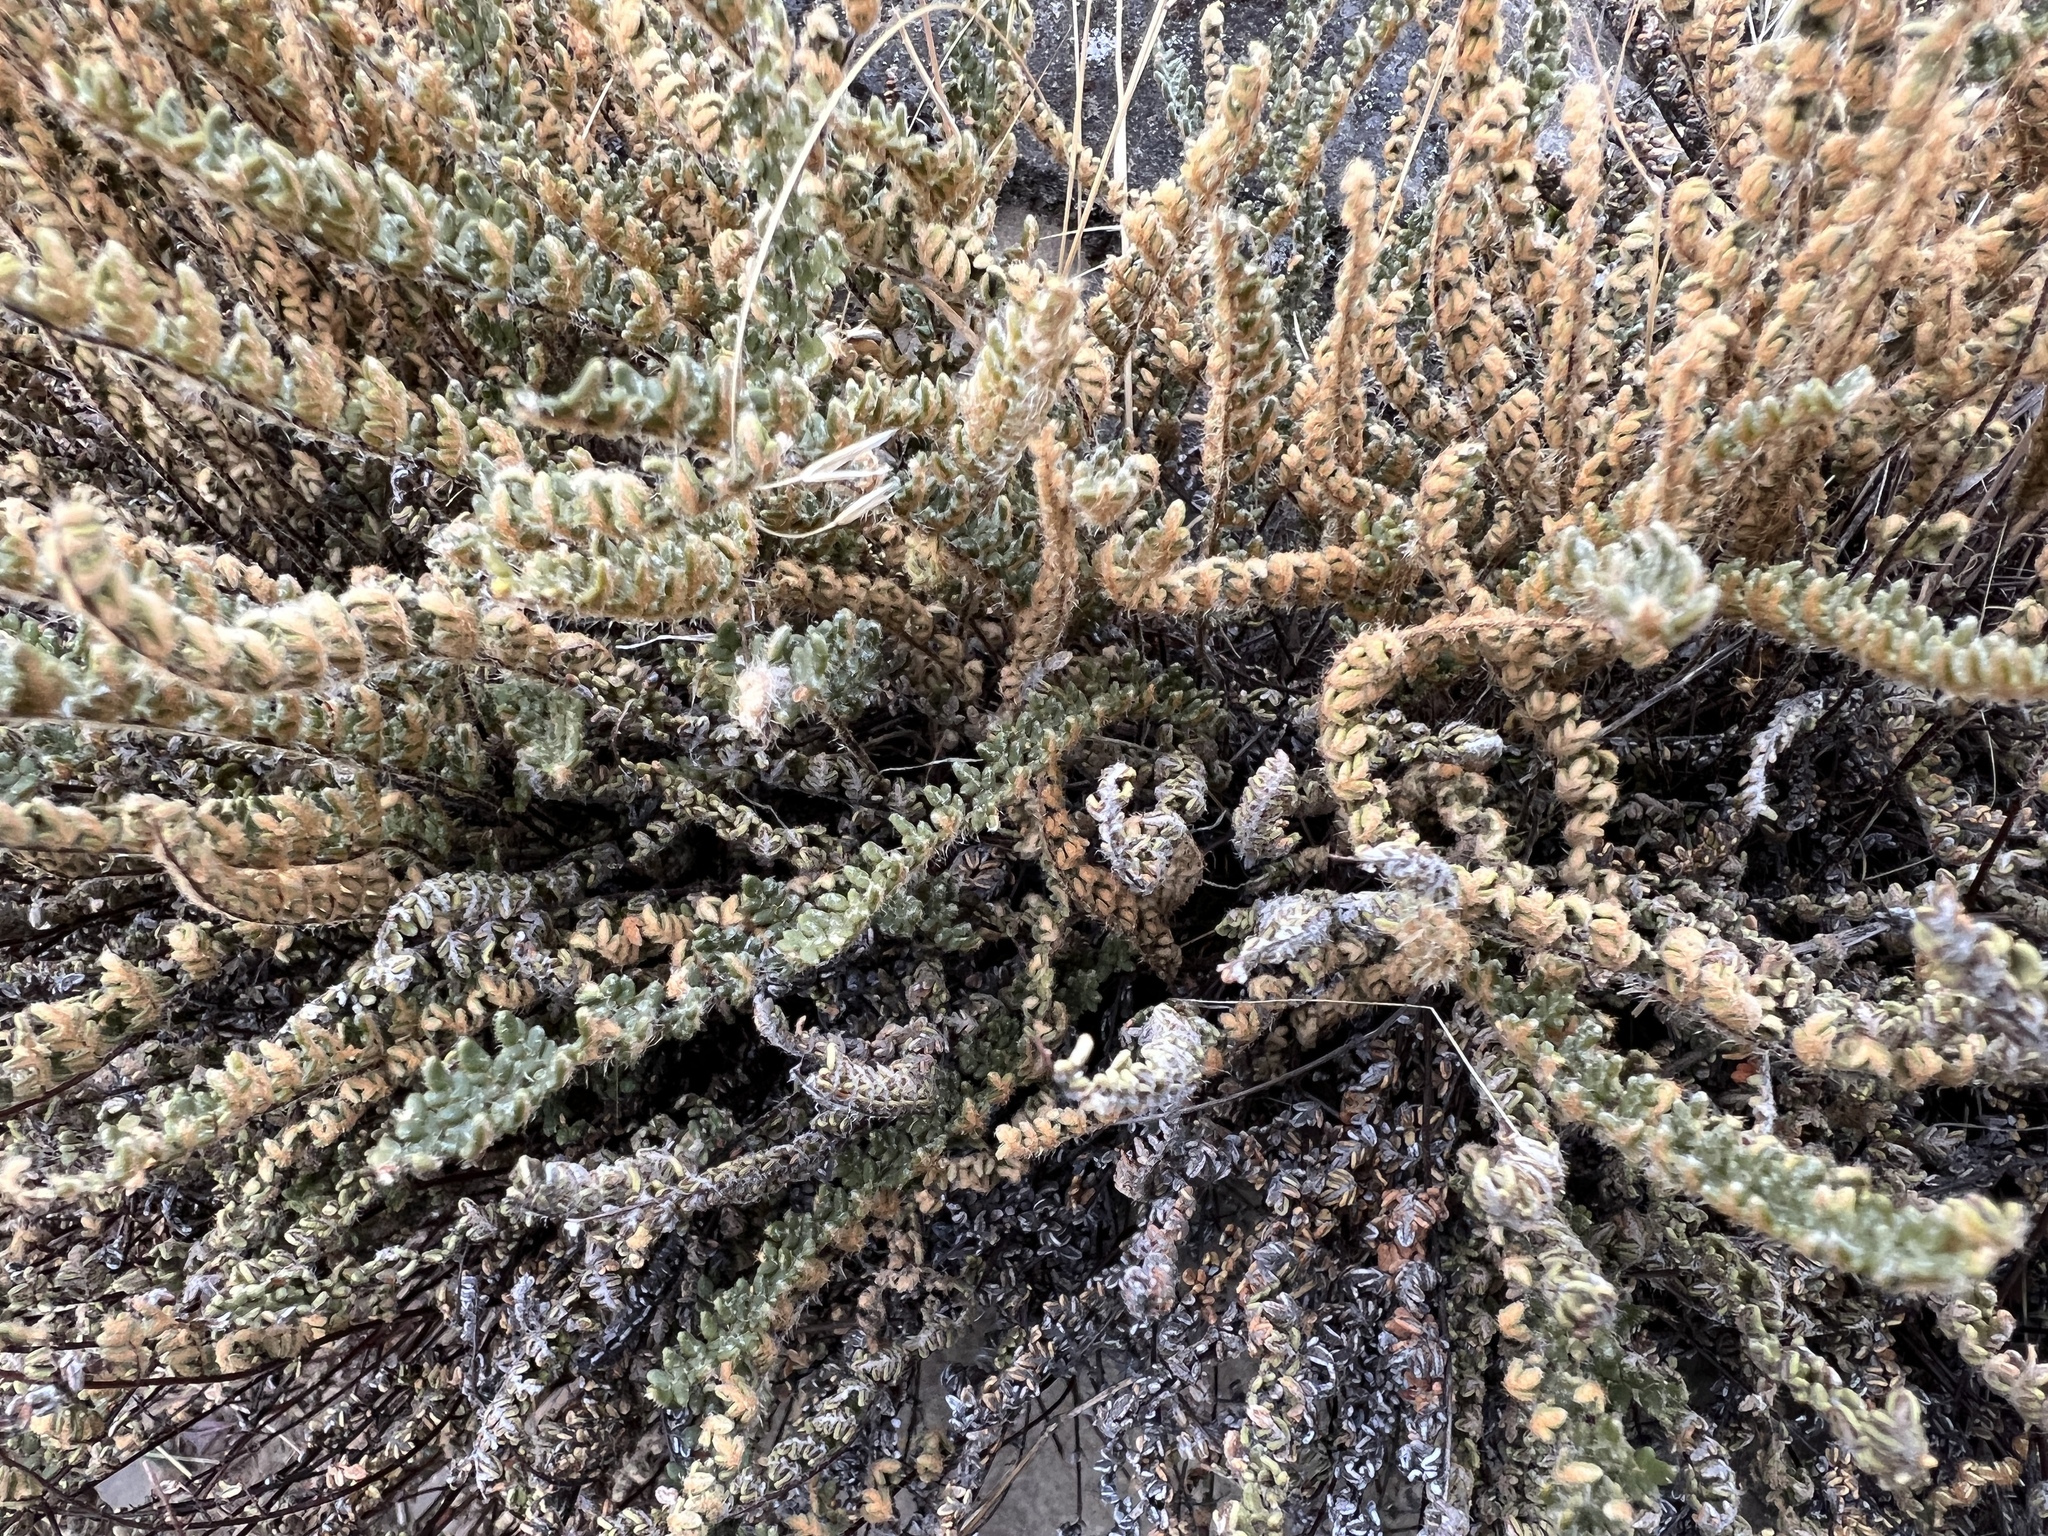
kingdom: Plantae
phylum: Tracheophyta
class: Polypodiopsida
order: Polypodiales
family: Pteridaceae
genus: Myriopteris
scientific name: Myriopteris gracillima
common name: Lace fern
